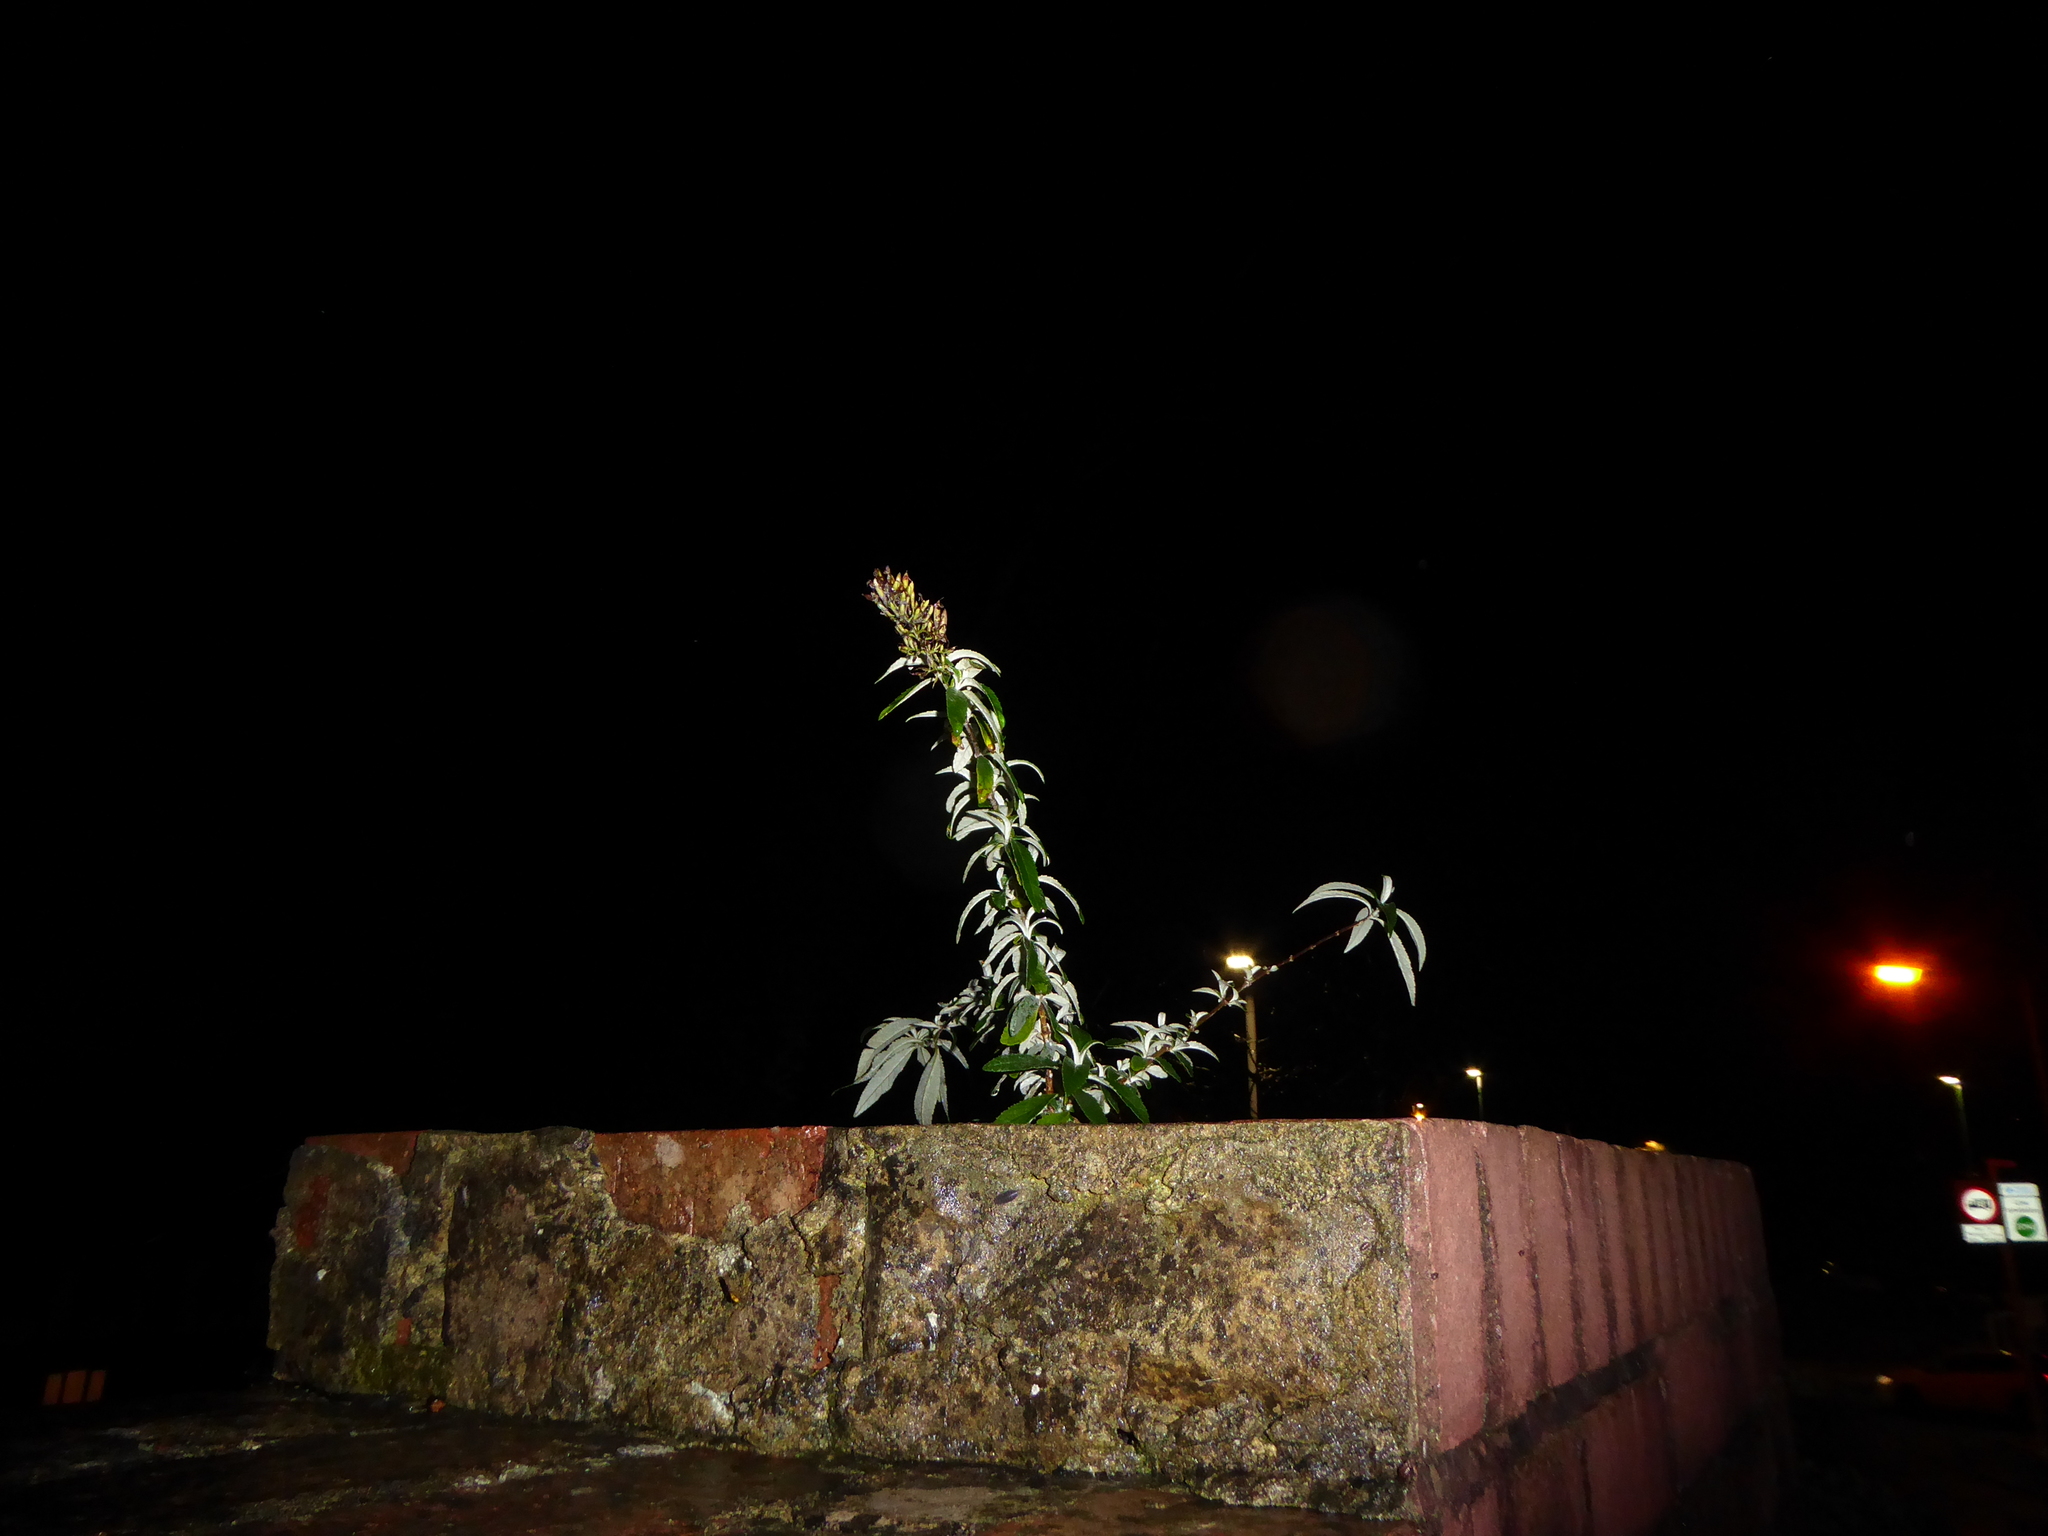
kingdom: Plantae
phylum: Tracheophyta
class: Magnoliopsida
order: Lamiales
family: Scrophulariaceae
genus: Buddleja
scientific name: Buddleja davidii
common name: Butterfly-bush
